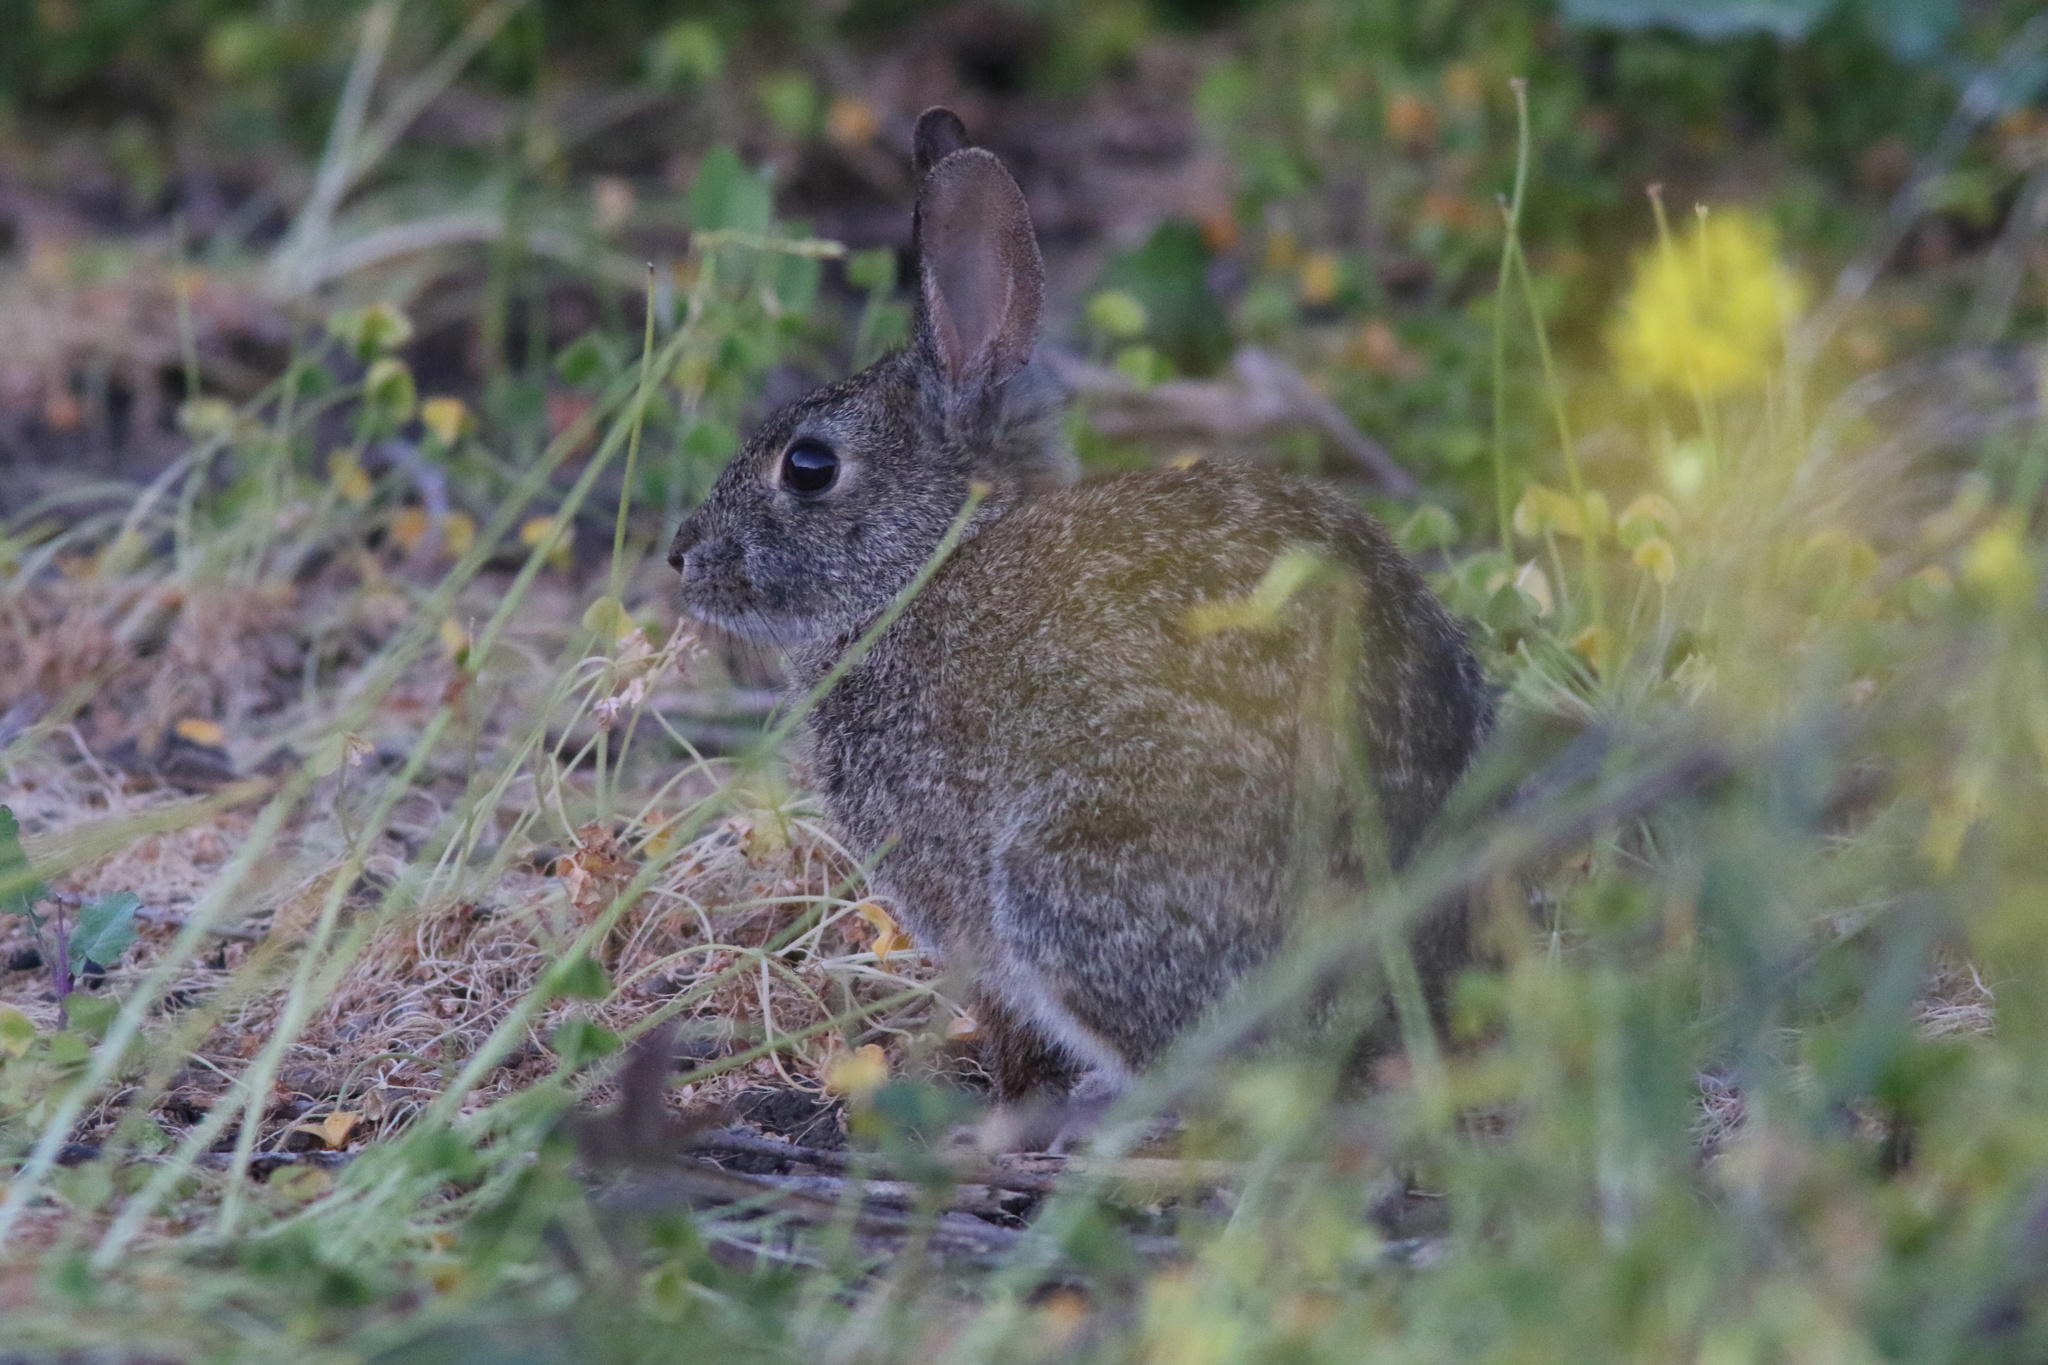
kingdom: Animalia
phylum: Chordata
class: Mammalia
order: Lagomorpha
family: Leporidae
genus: Sylvilagus
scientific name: Sylvilagus bachmani
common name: Brush rabbit
